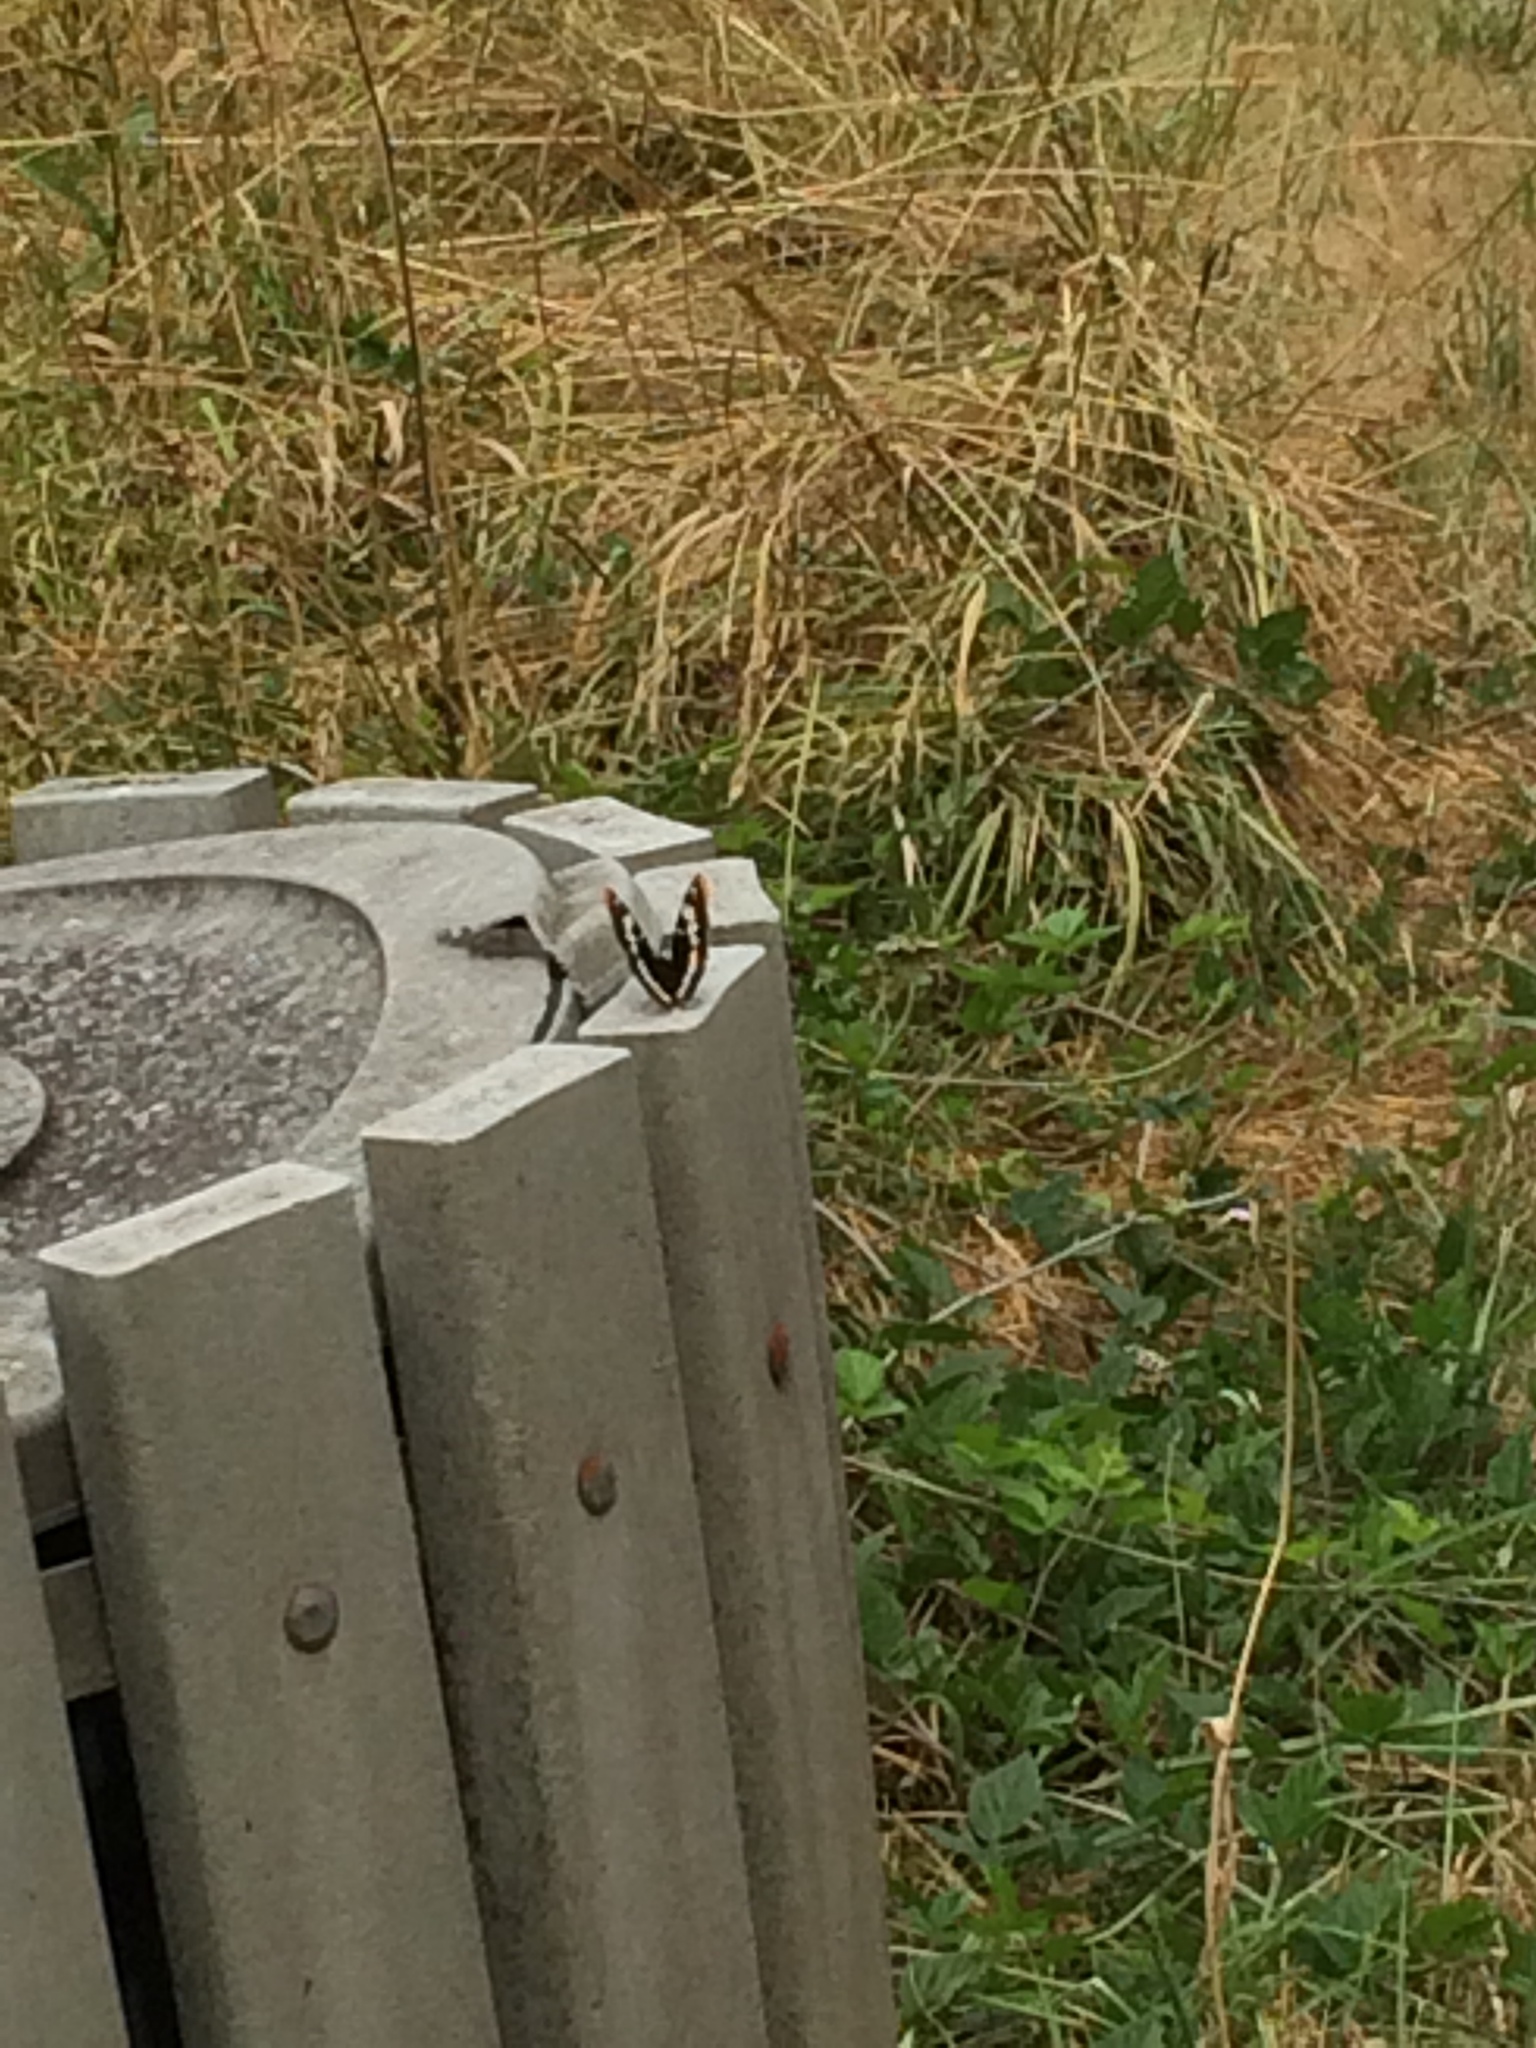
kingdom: Animalia
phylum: Arthropoda
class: Insecta
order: Lepidoptera
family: Nymphalidae
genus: Limenitis
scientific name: Limenitis lorquini
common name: Lorquin's admiral
